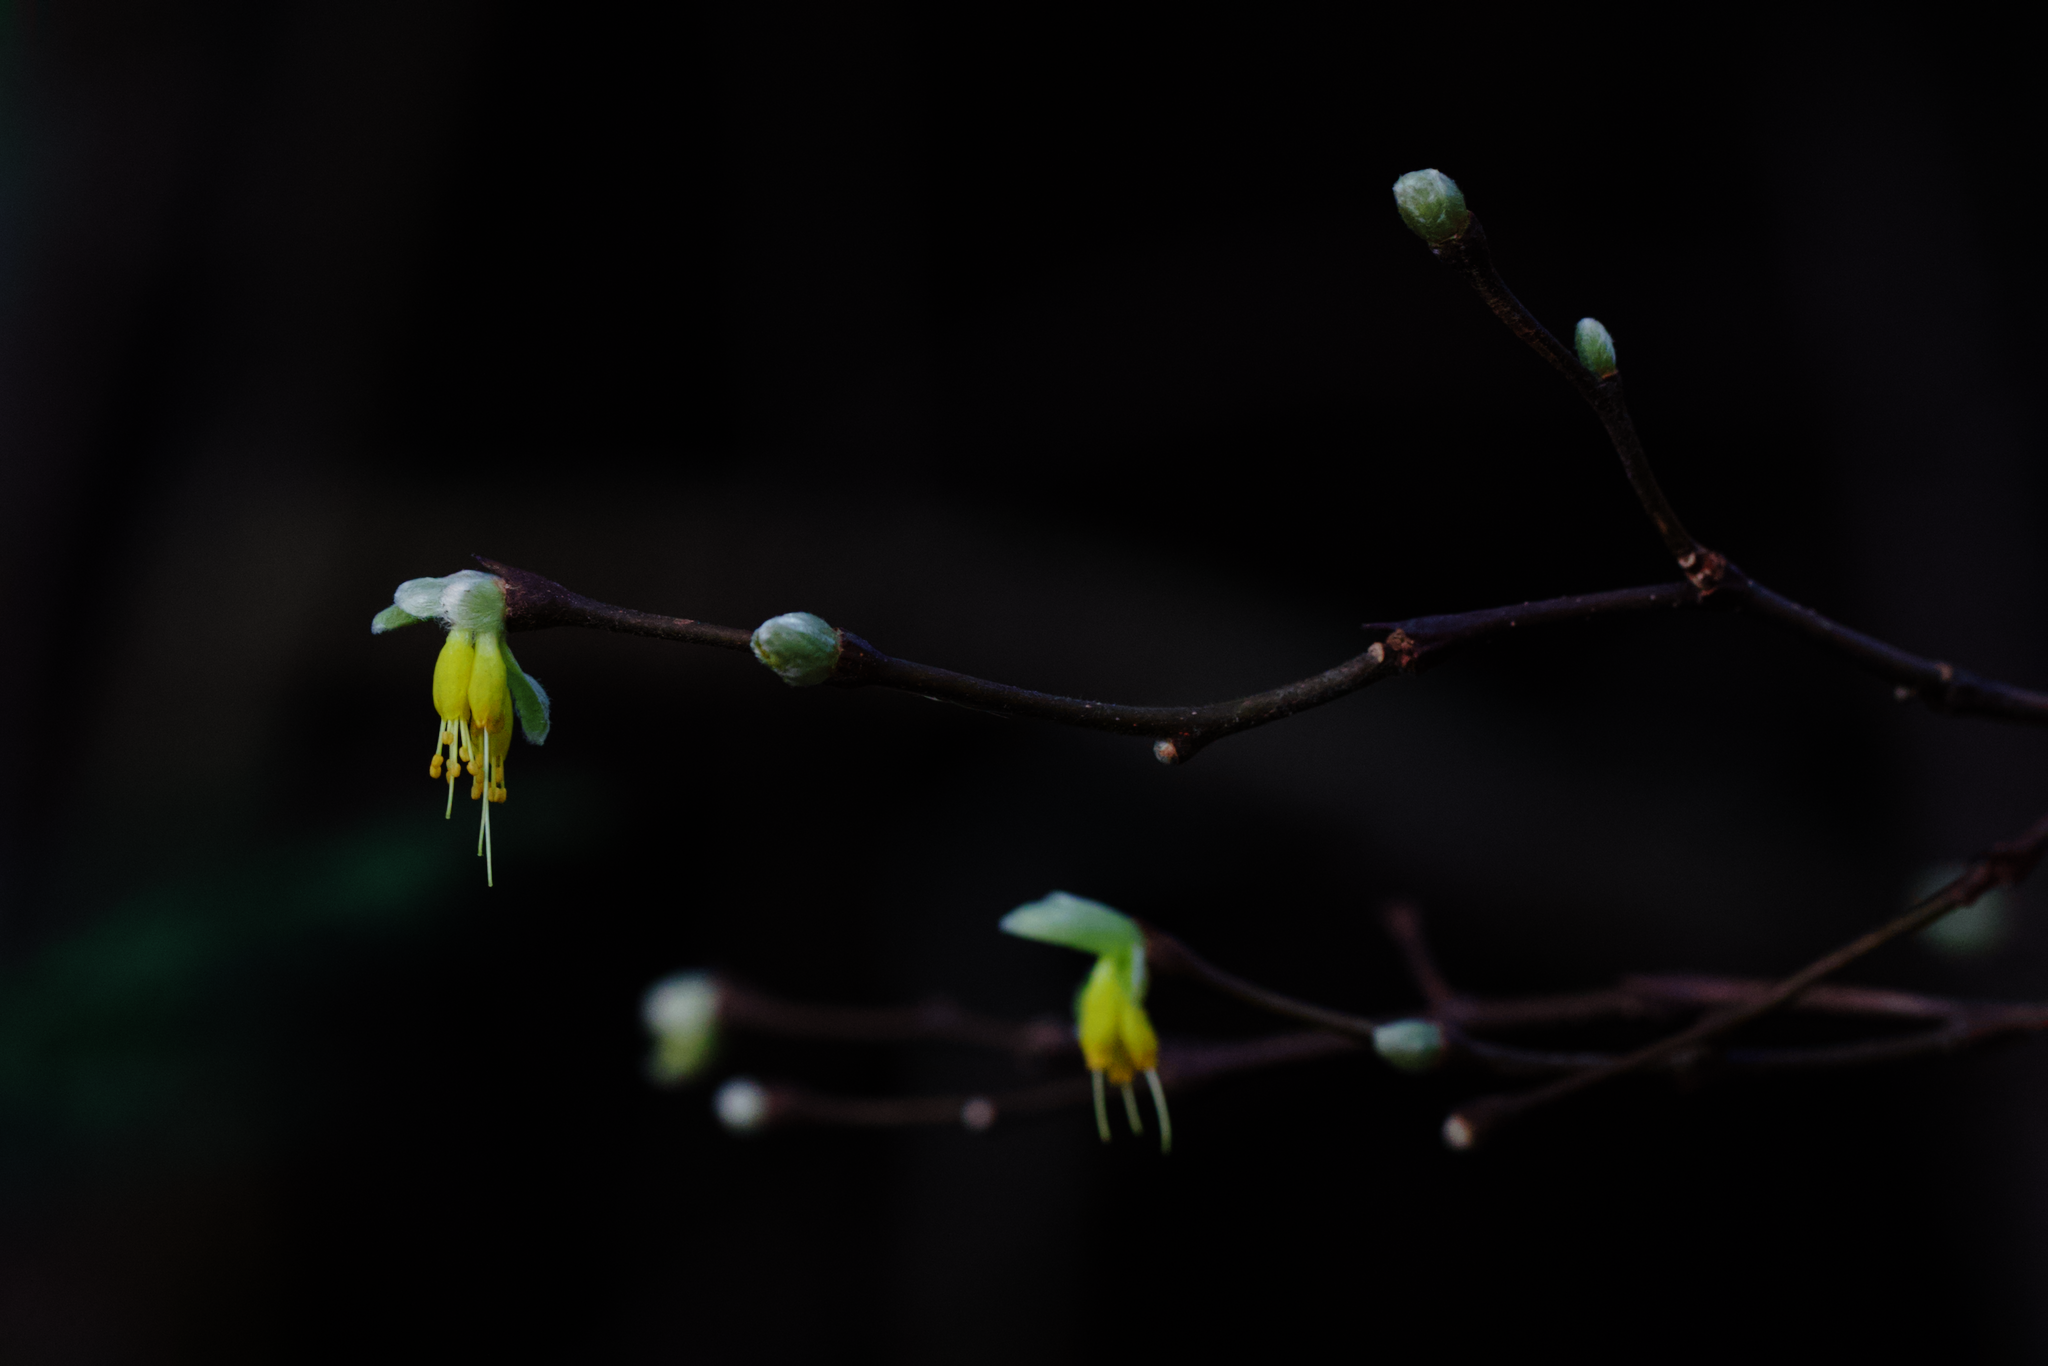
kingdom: Plantae
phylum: Tracheophyta
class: Magnoliopsida
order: Malvales
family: Thymelaeaceae
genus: Dirca
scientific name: Dirca occidentalis
